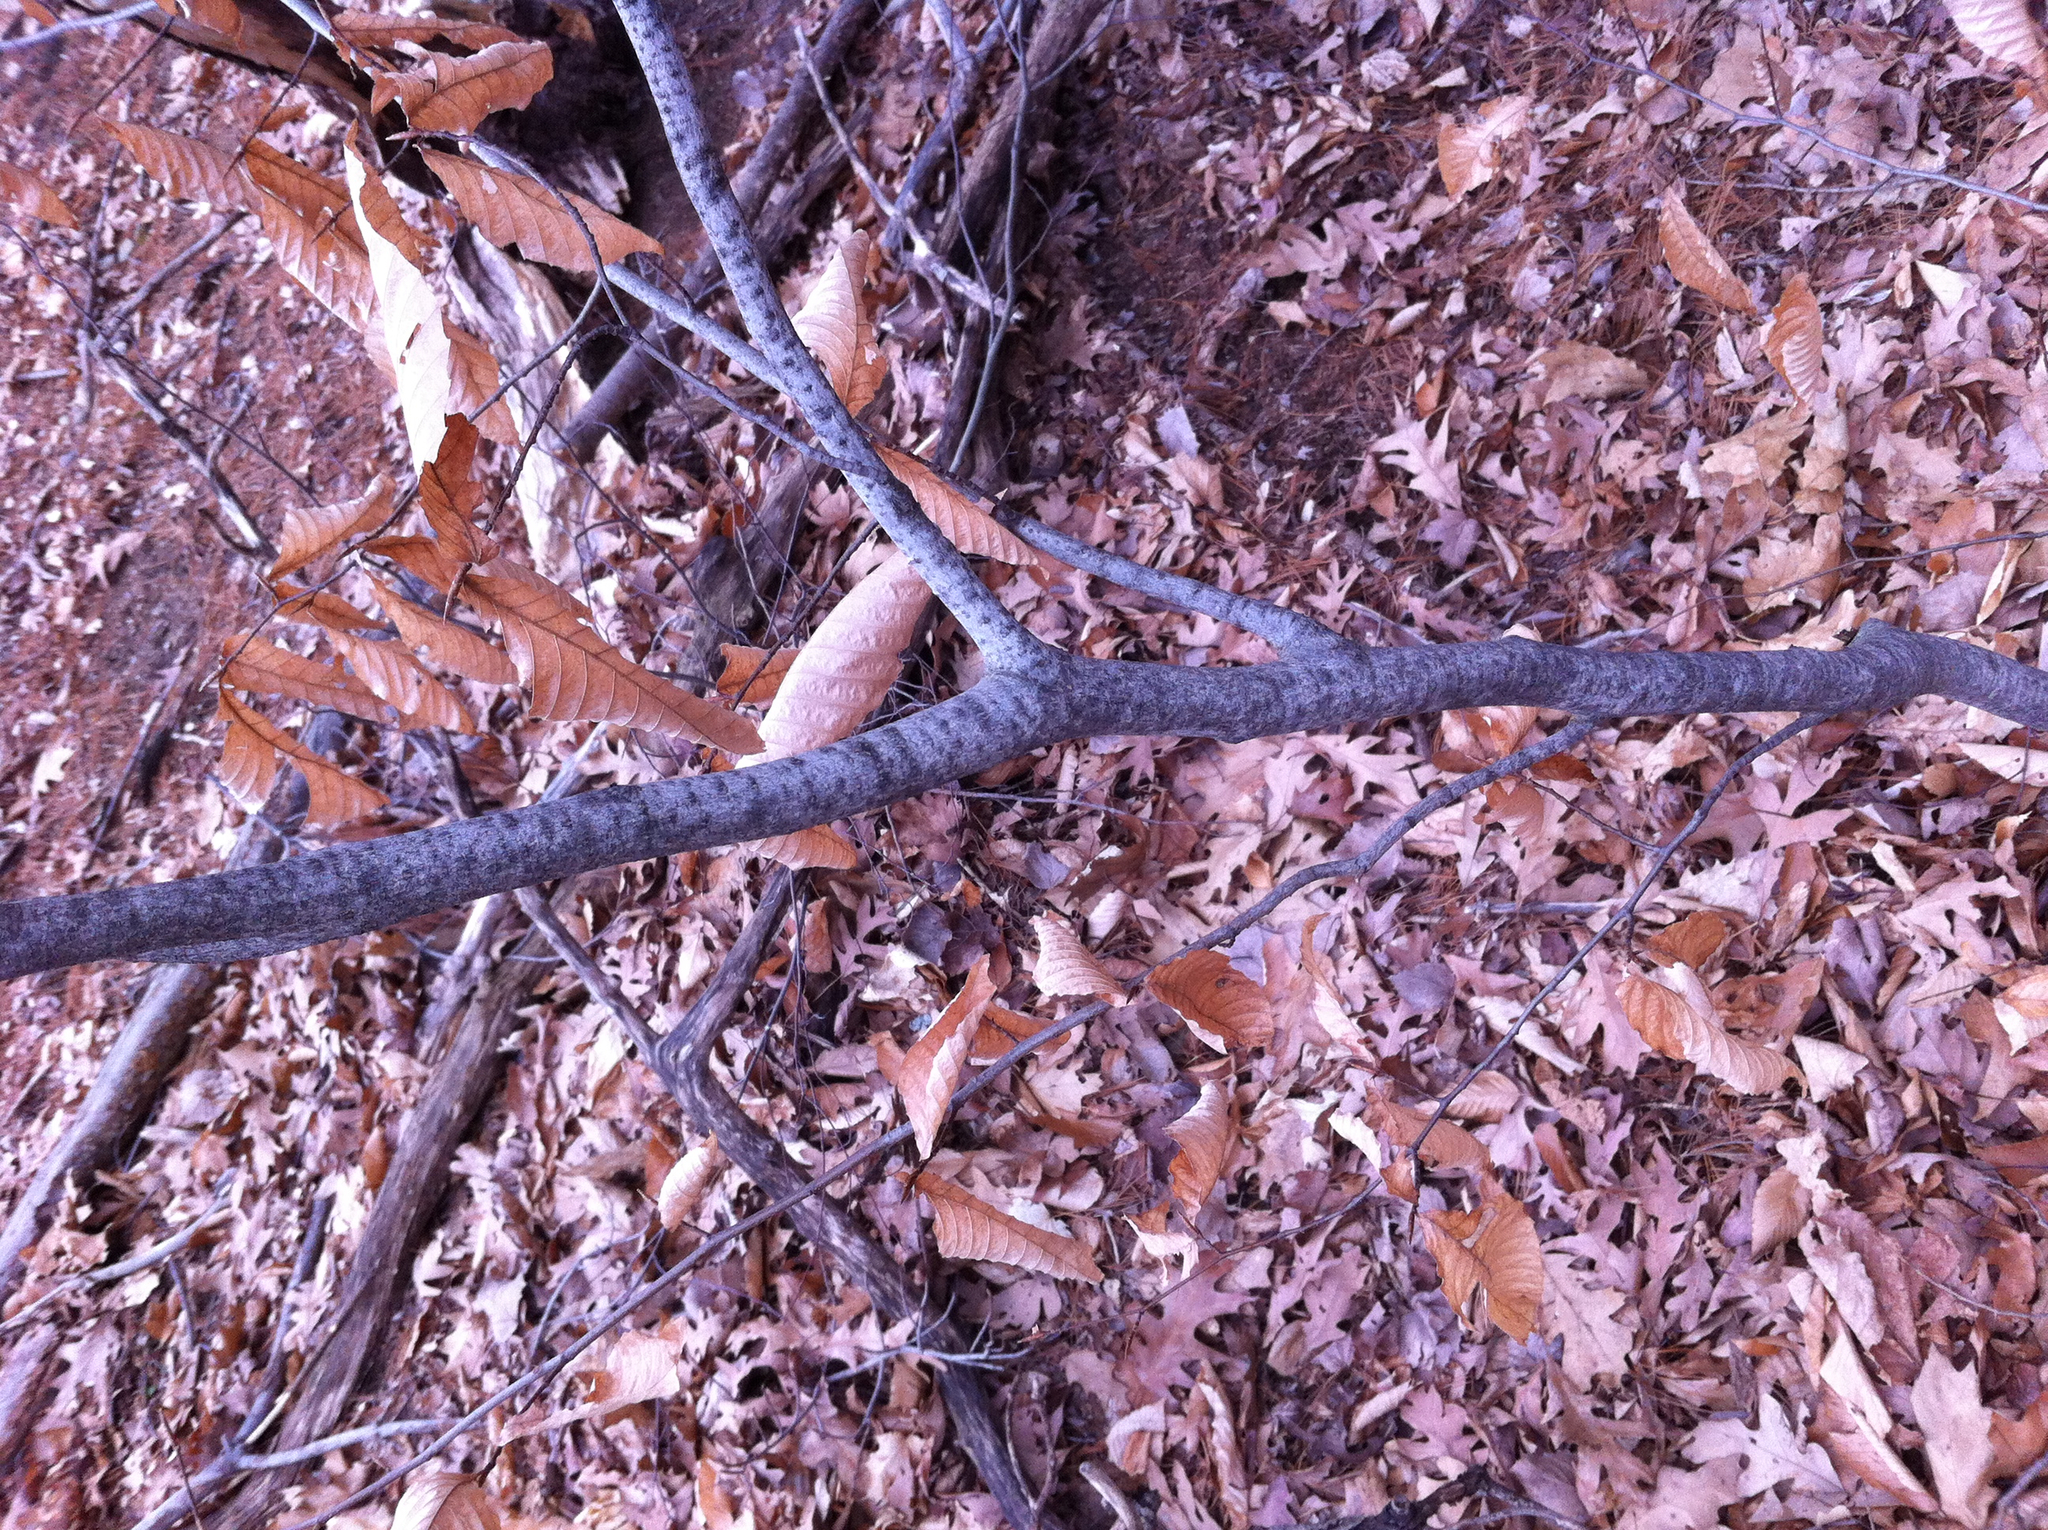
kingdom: Plantae
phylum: Tracheophyta
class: Magnoliopsida
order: Fagales
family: Fagaceae
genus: Fagus
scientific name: Fagus grandifolia
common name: American beech
